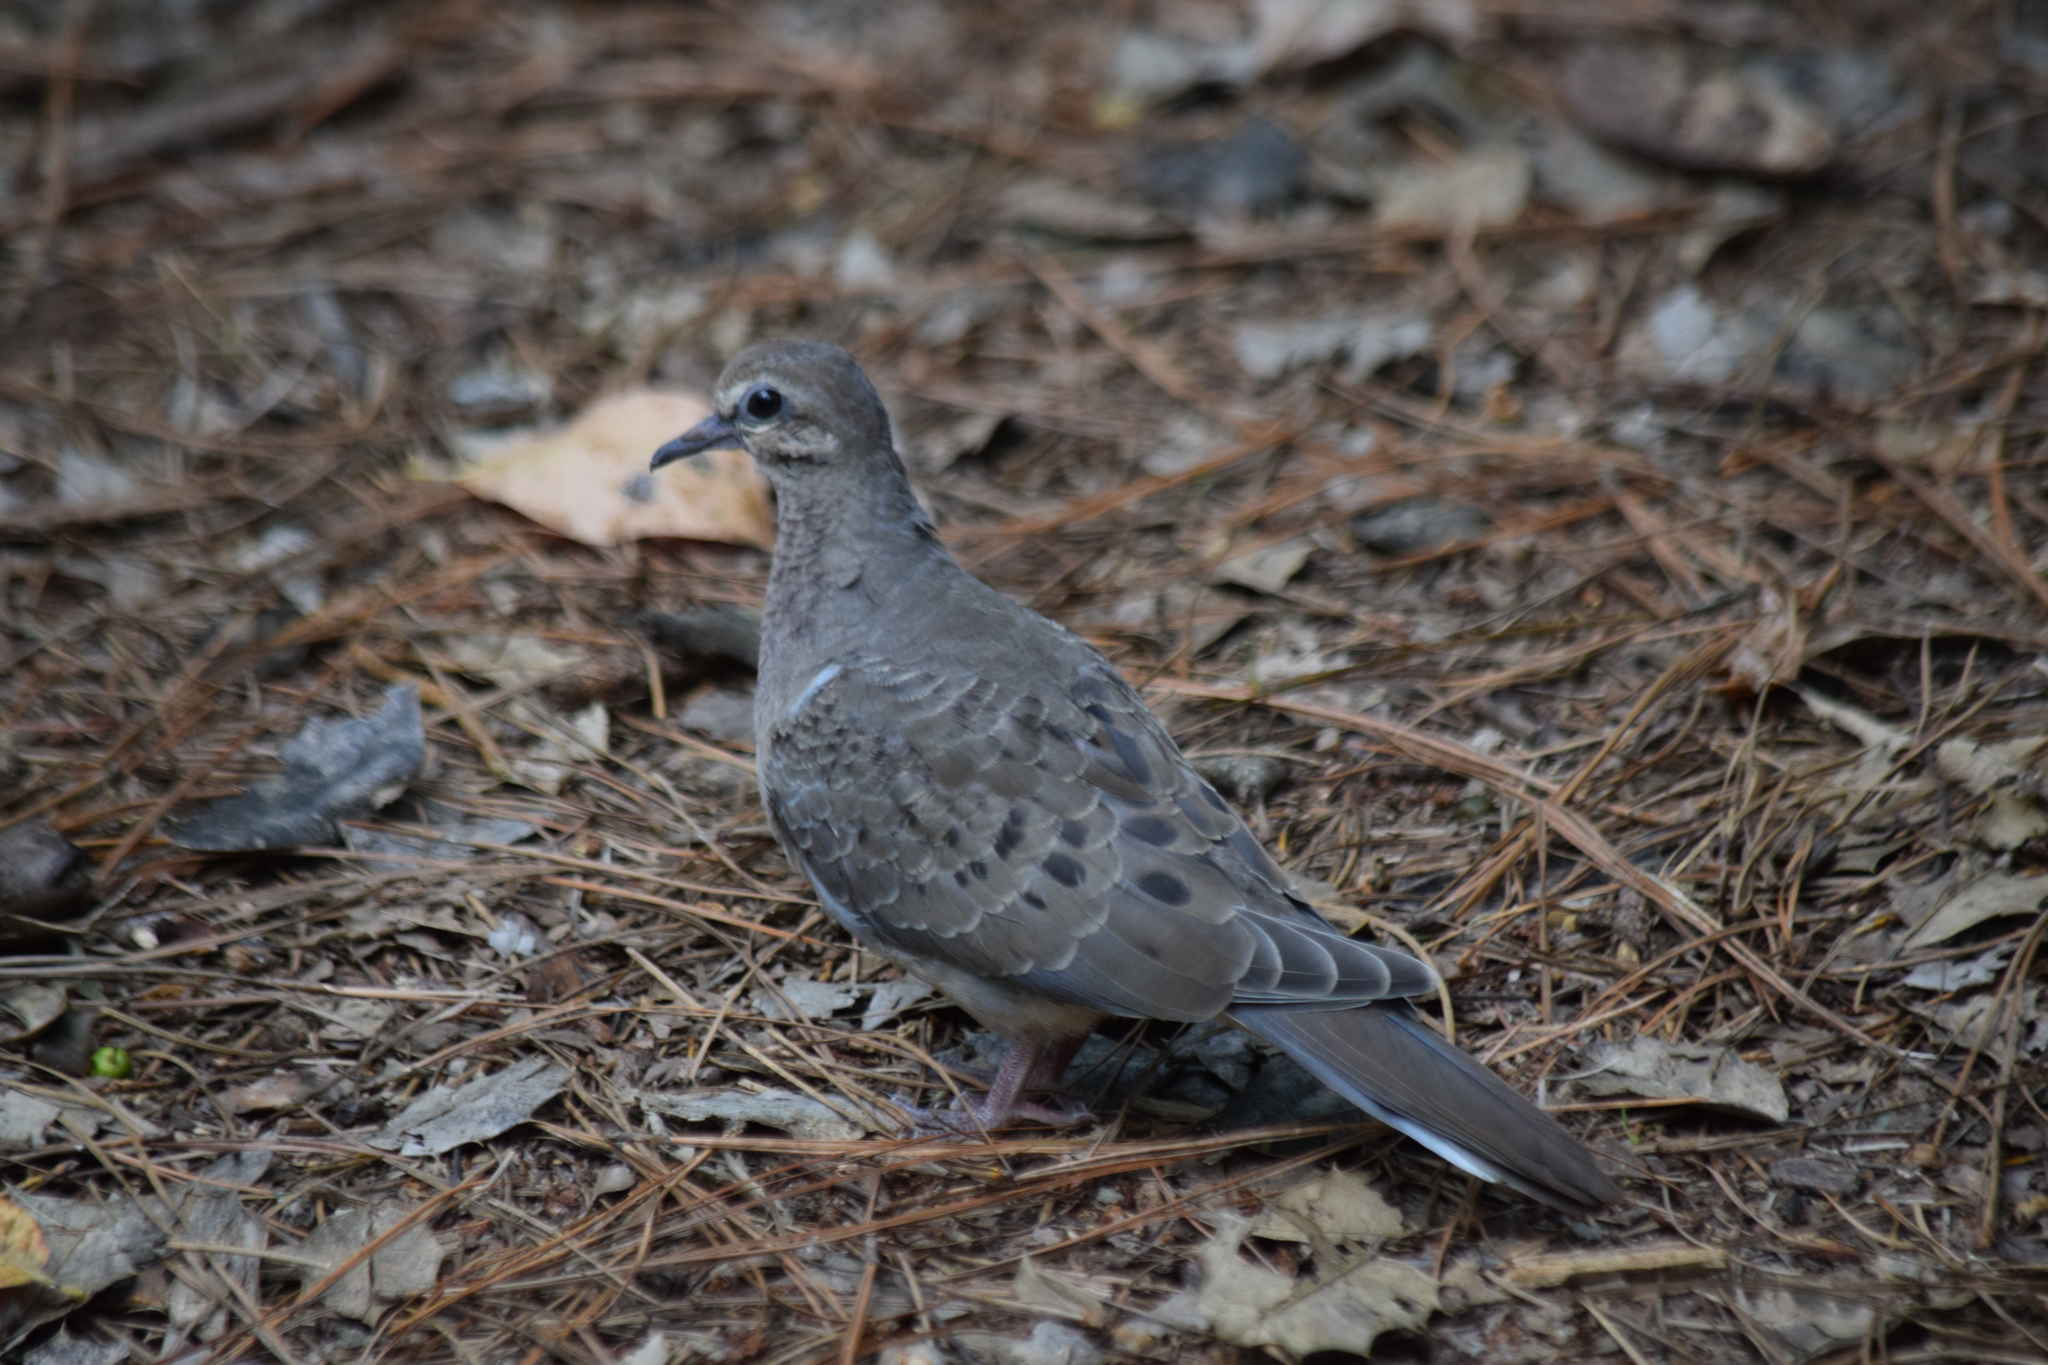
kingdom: Animalia
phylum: Chordata
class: Aves
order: Columbiformes
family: Columbidae
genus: Zenaida
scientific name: Zenaida macroura
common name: Mourning dove
